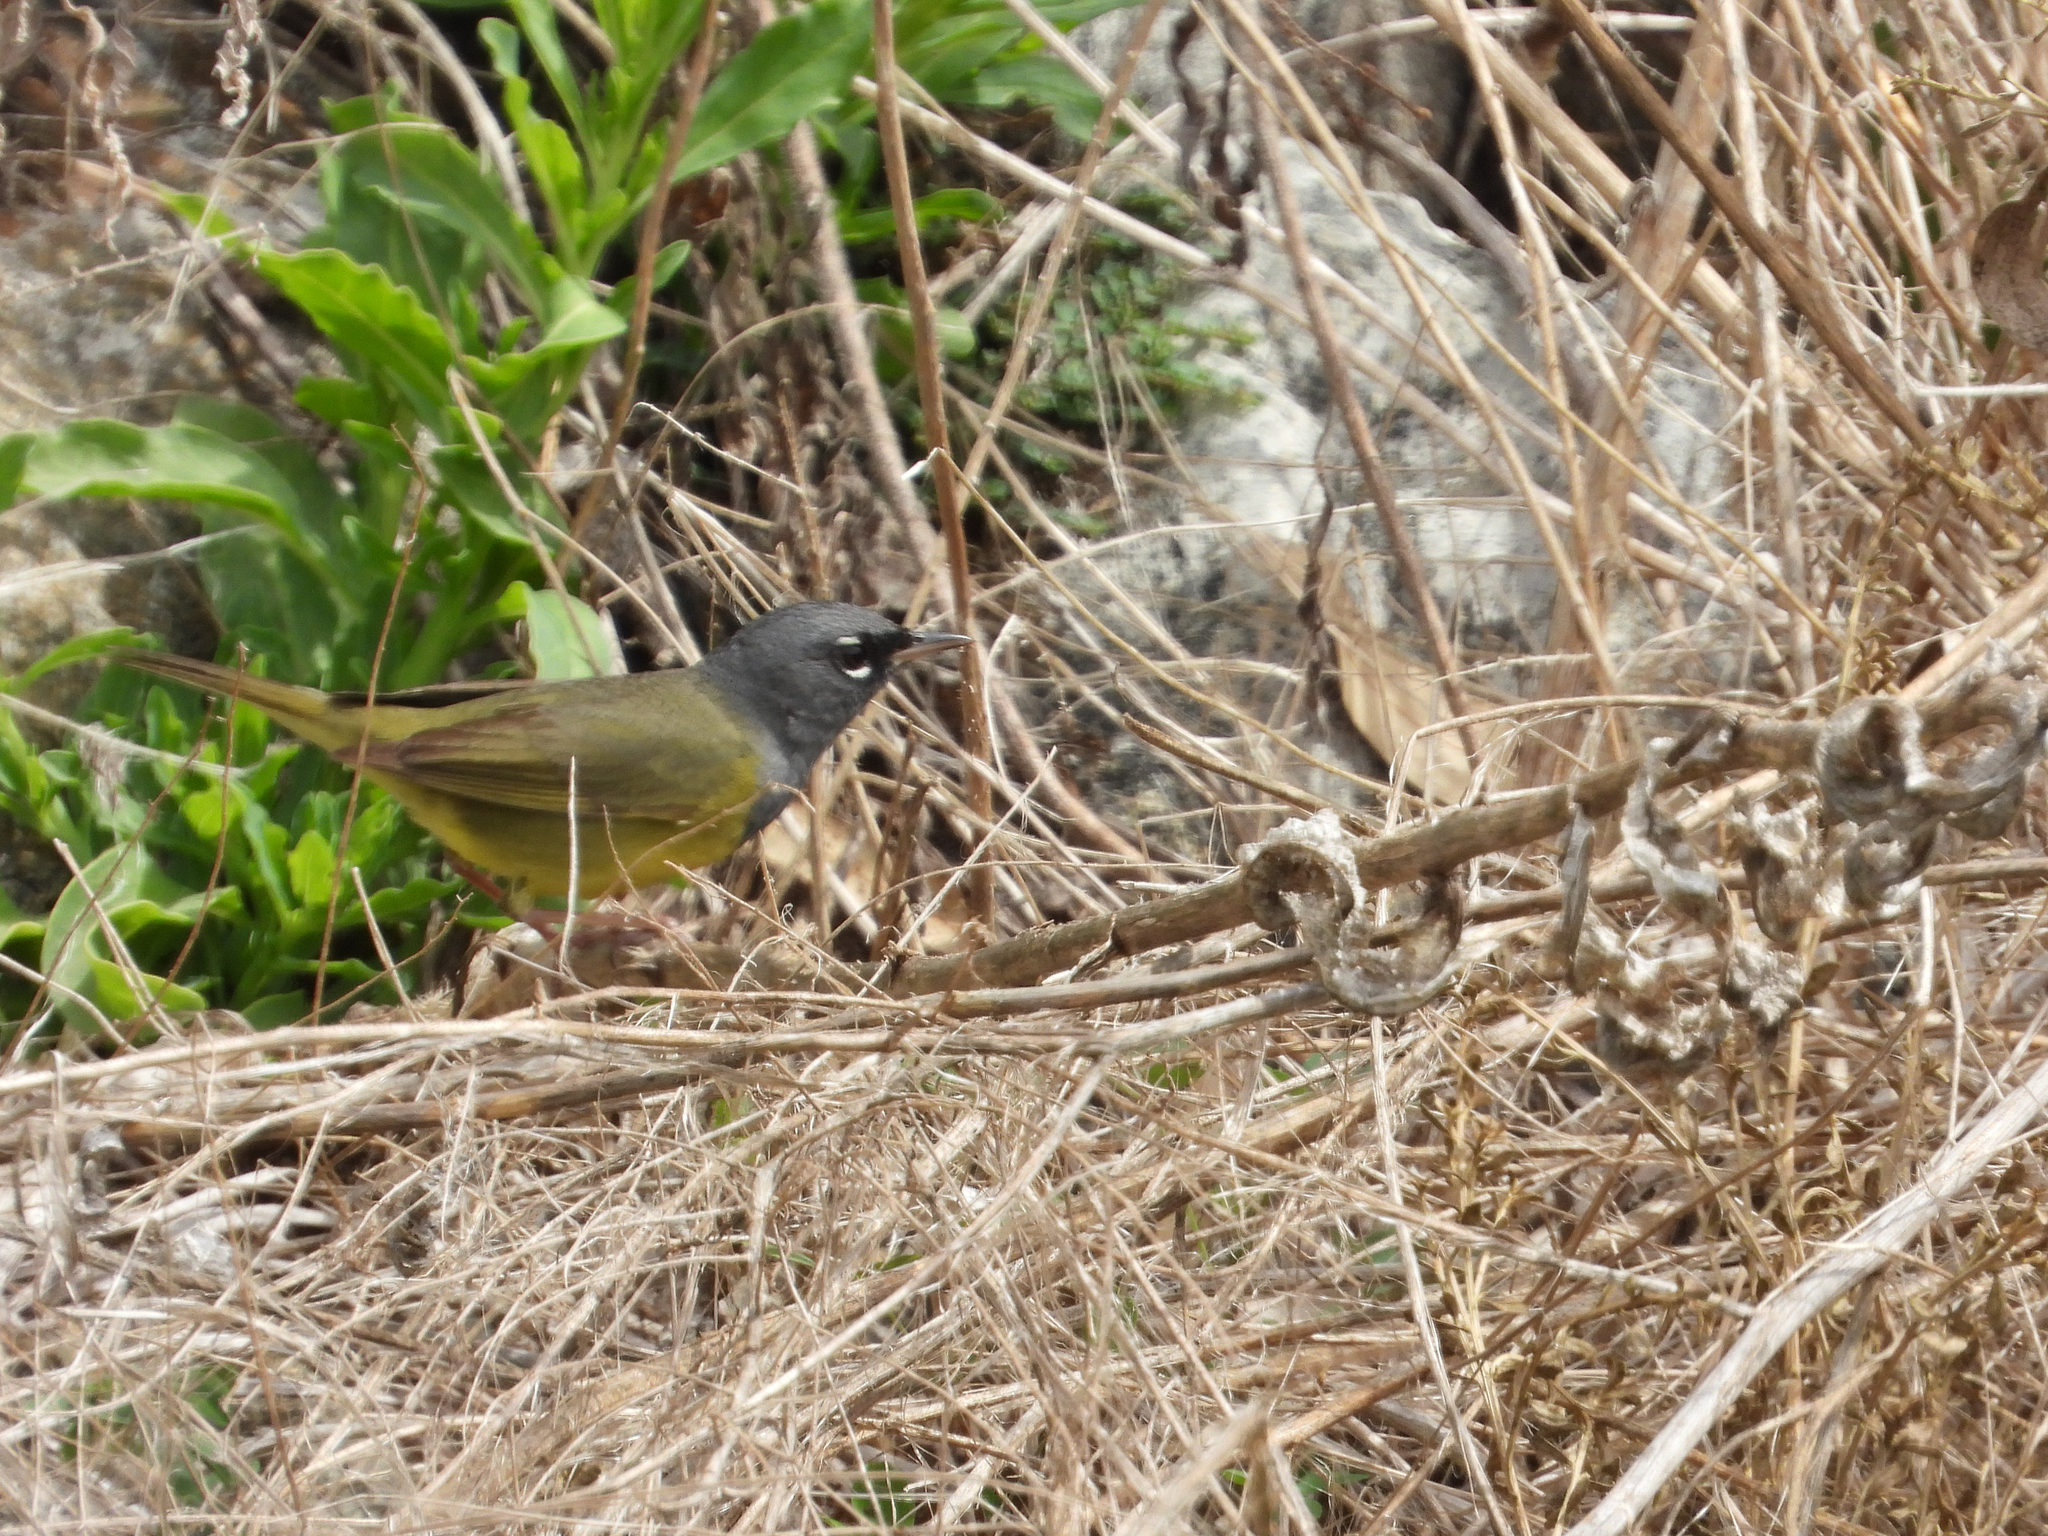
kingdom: Animalia
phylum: Chordata
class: Aves
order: Passeriformes
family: Parulidae
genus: Geothlypis
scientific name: Geothlypis tolmiei
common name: Macgillivray's warbler
